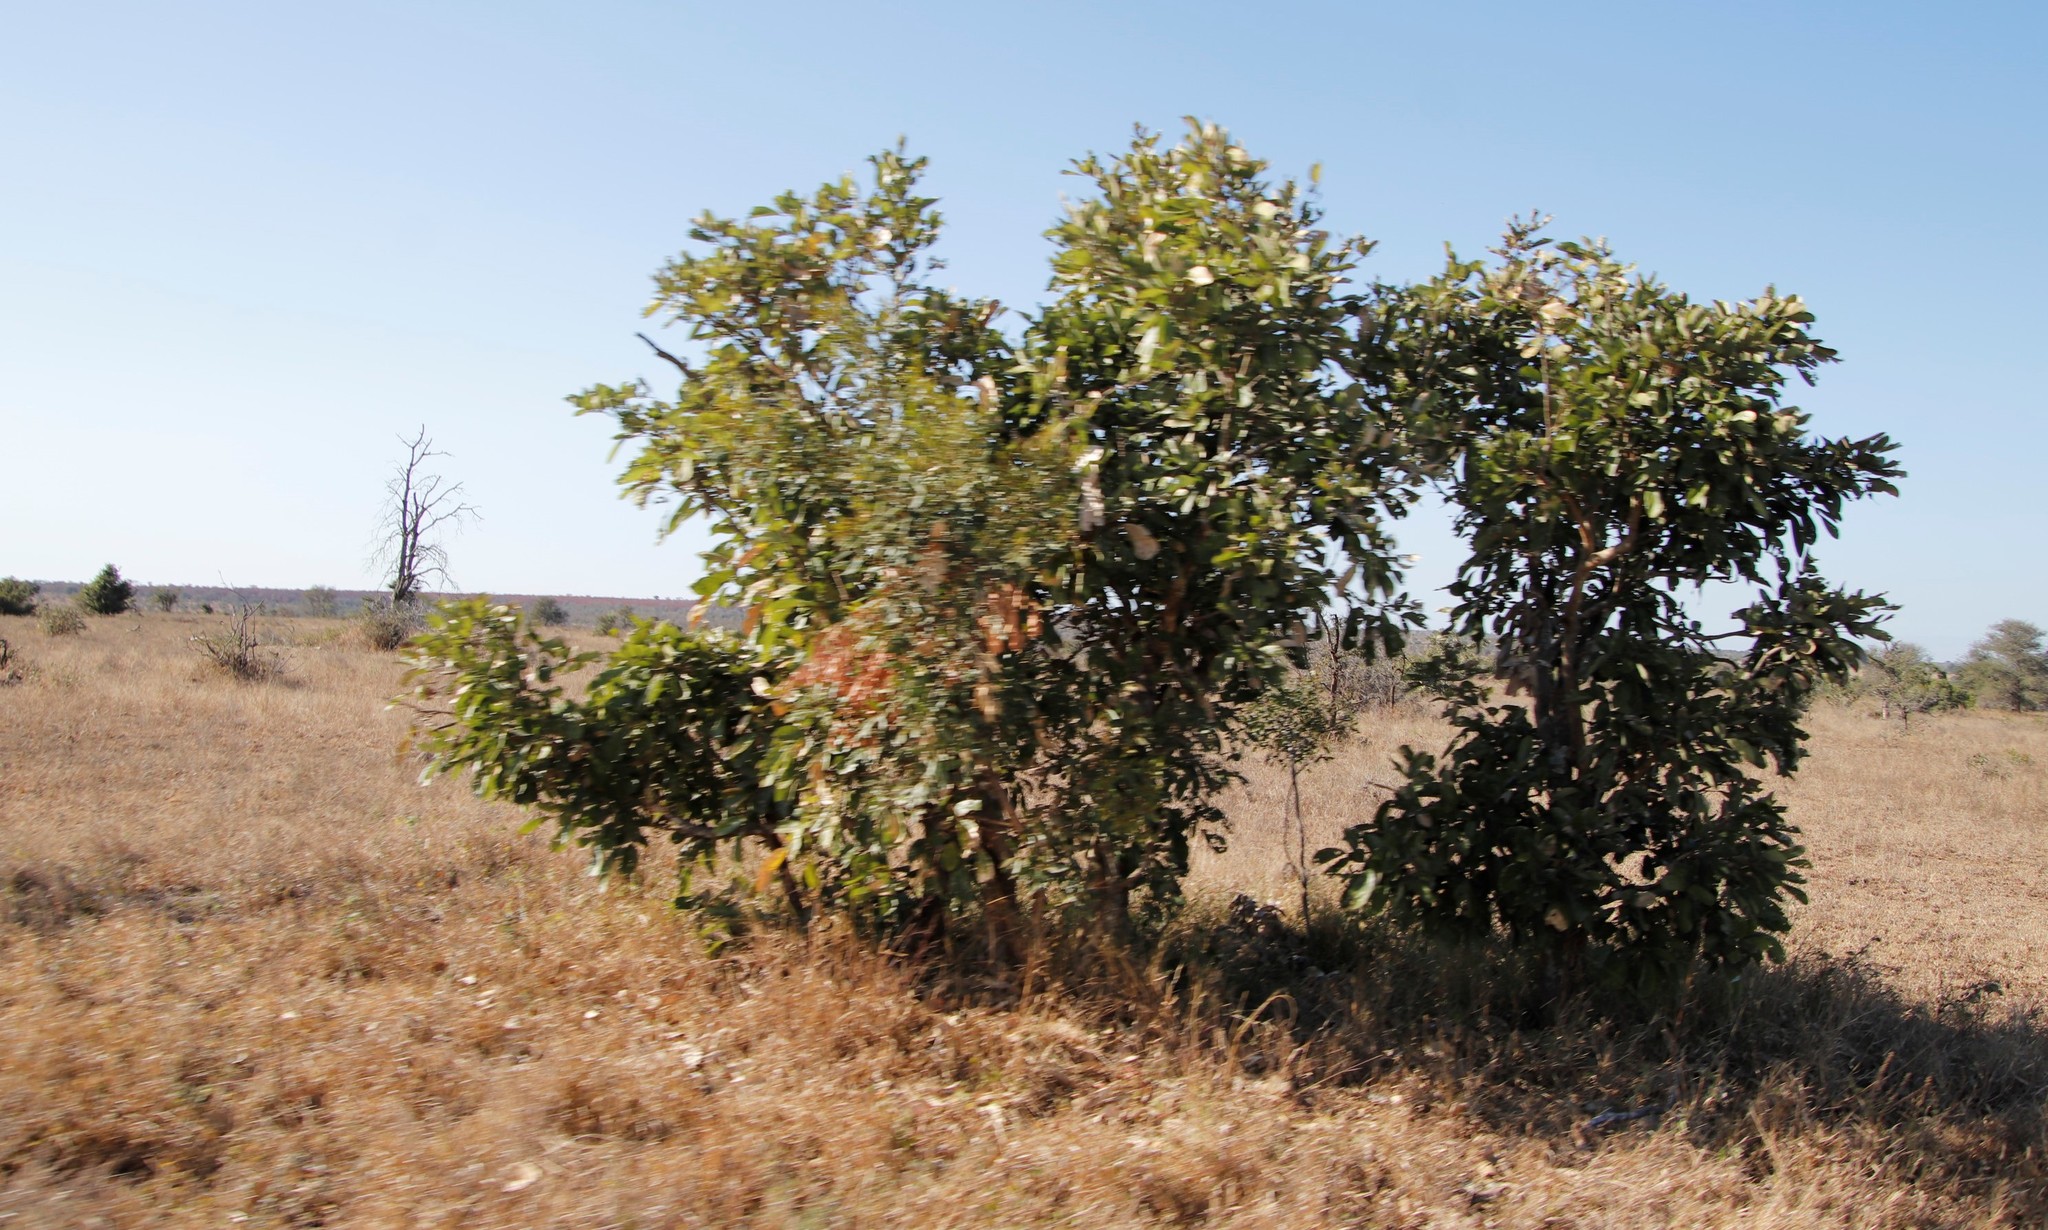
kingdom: Plantae
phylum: Tracheophyta
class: Magnoliopsida
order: Fabales
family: Fabaceae
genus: Philenoptera
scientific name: Philenoptera violacea
